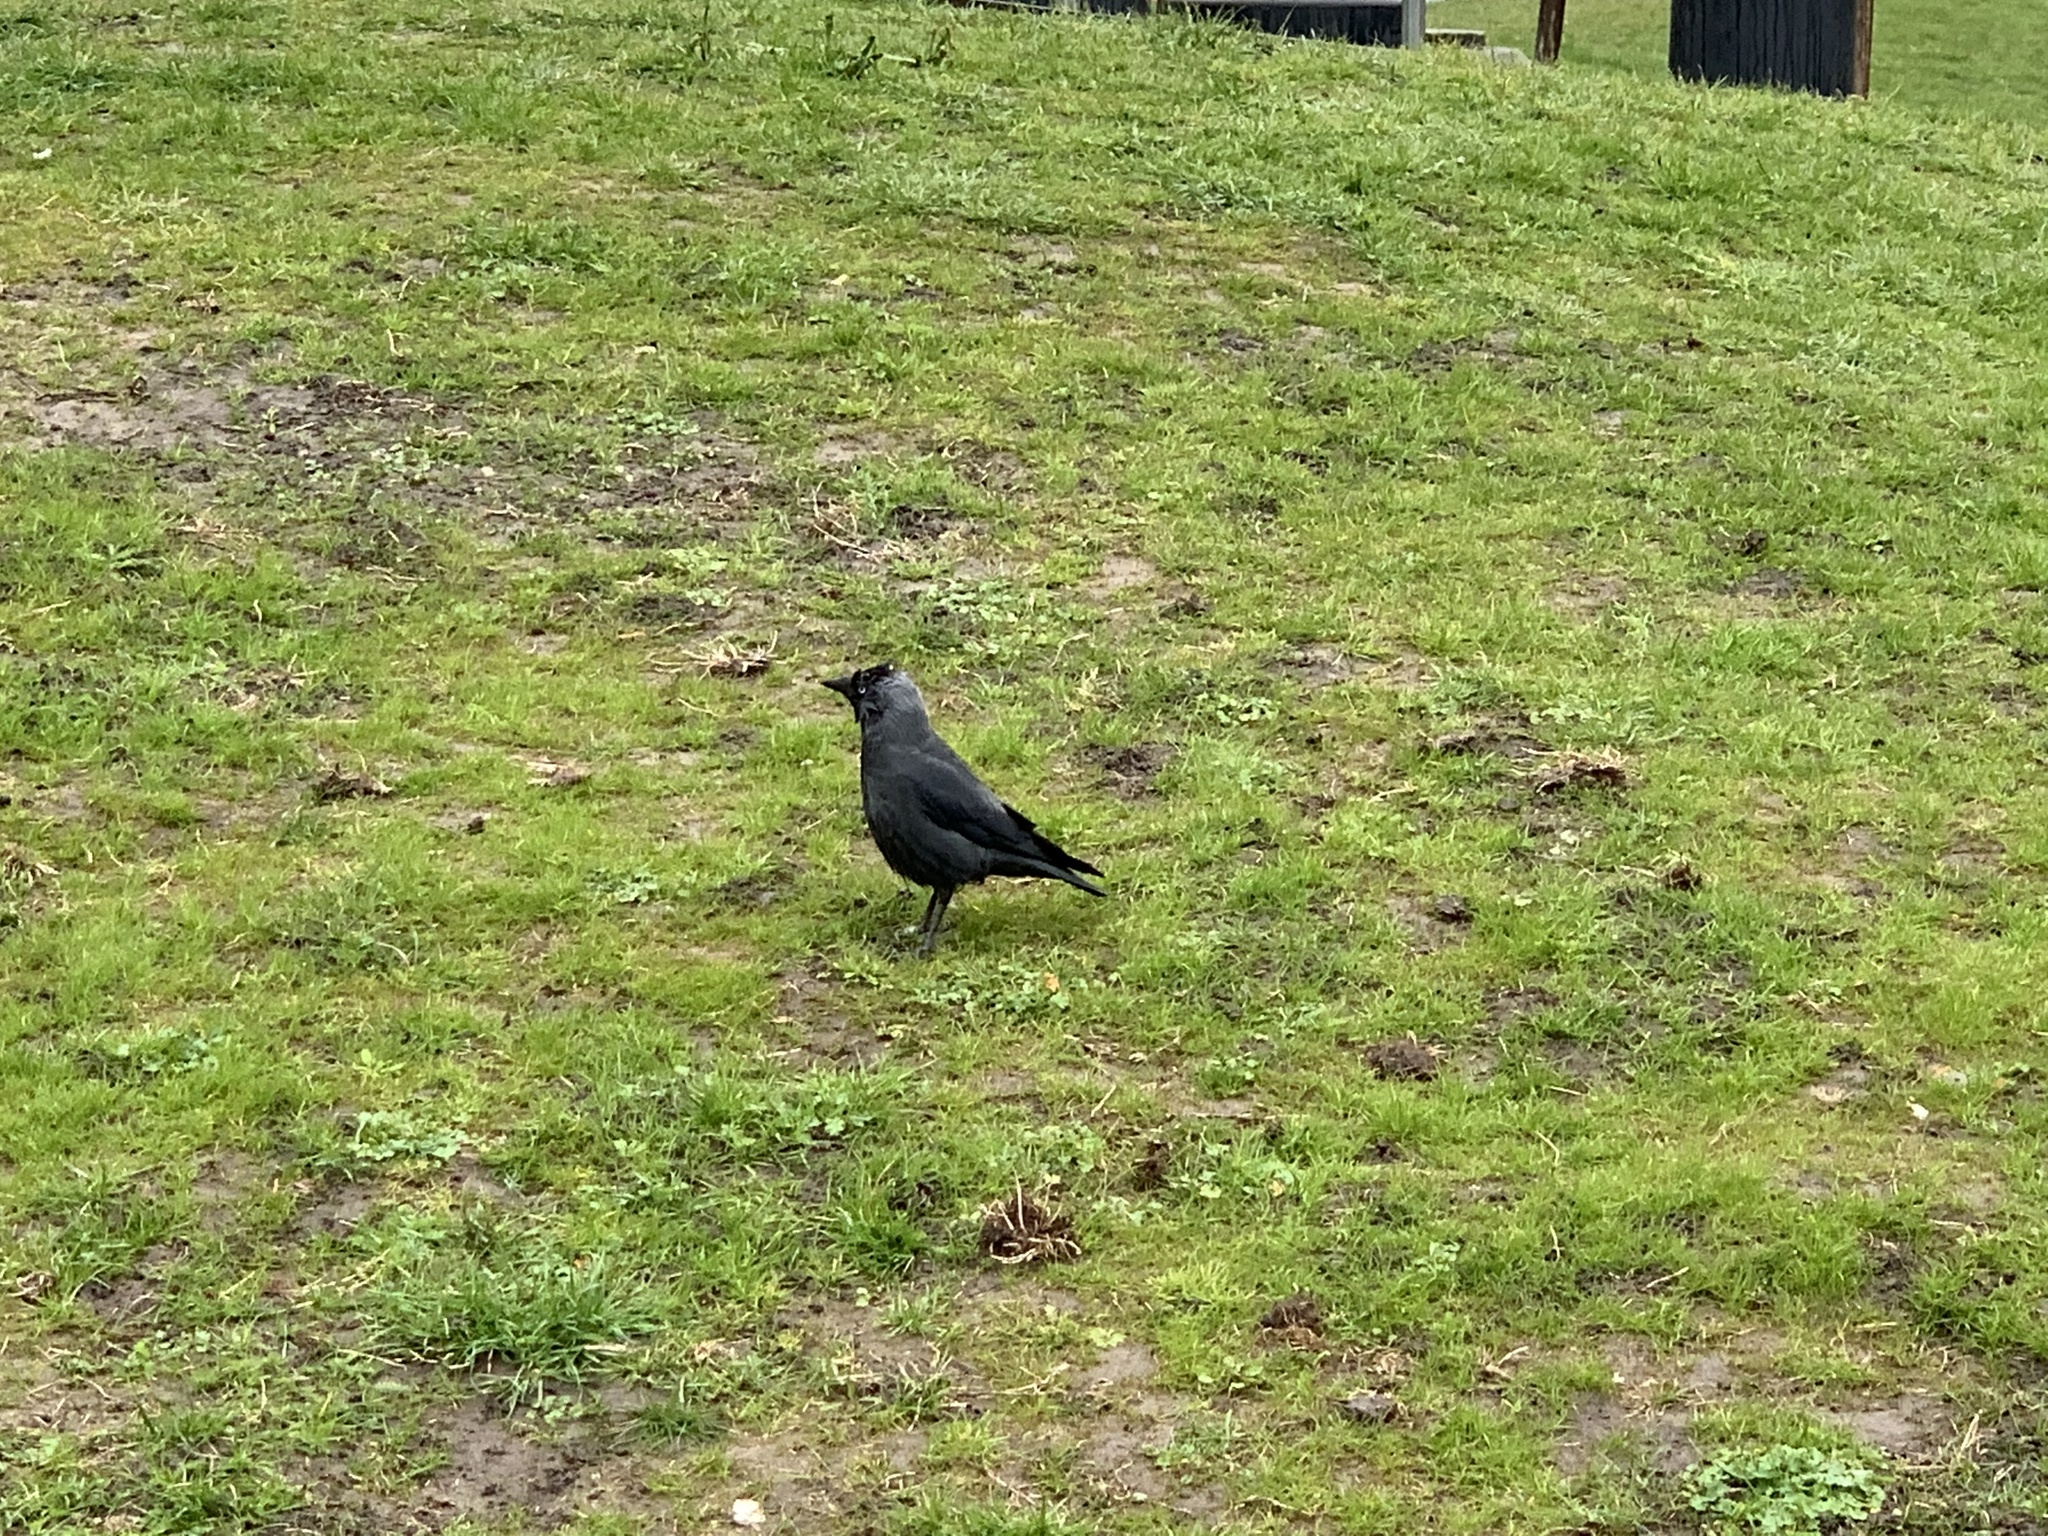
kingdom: Animalia
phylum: Chordata
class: Aves
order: Passeriformes
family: Corvidae
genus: Coloeus
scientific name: Coloeus monedula
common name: Western jackdaw
